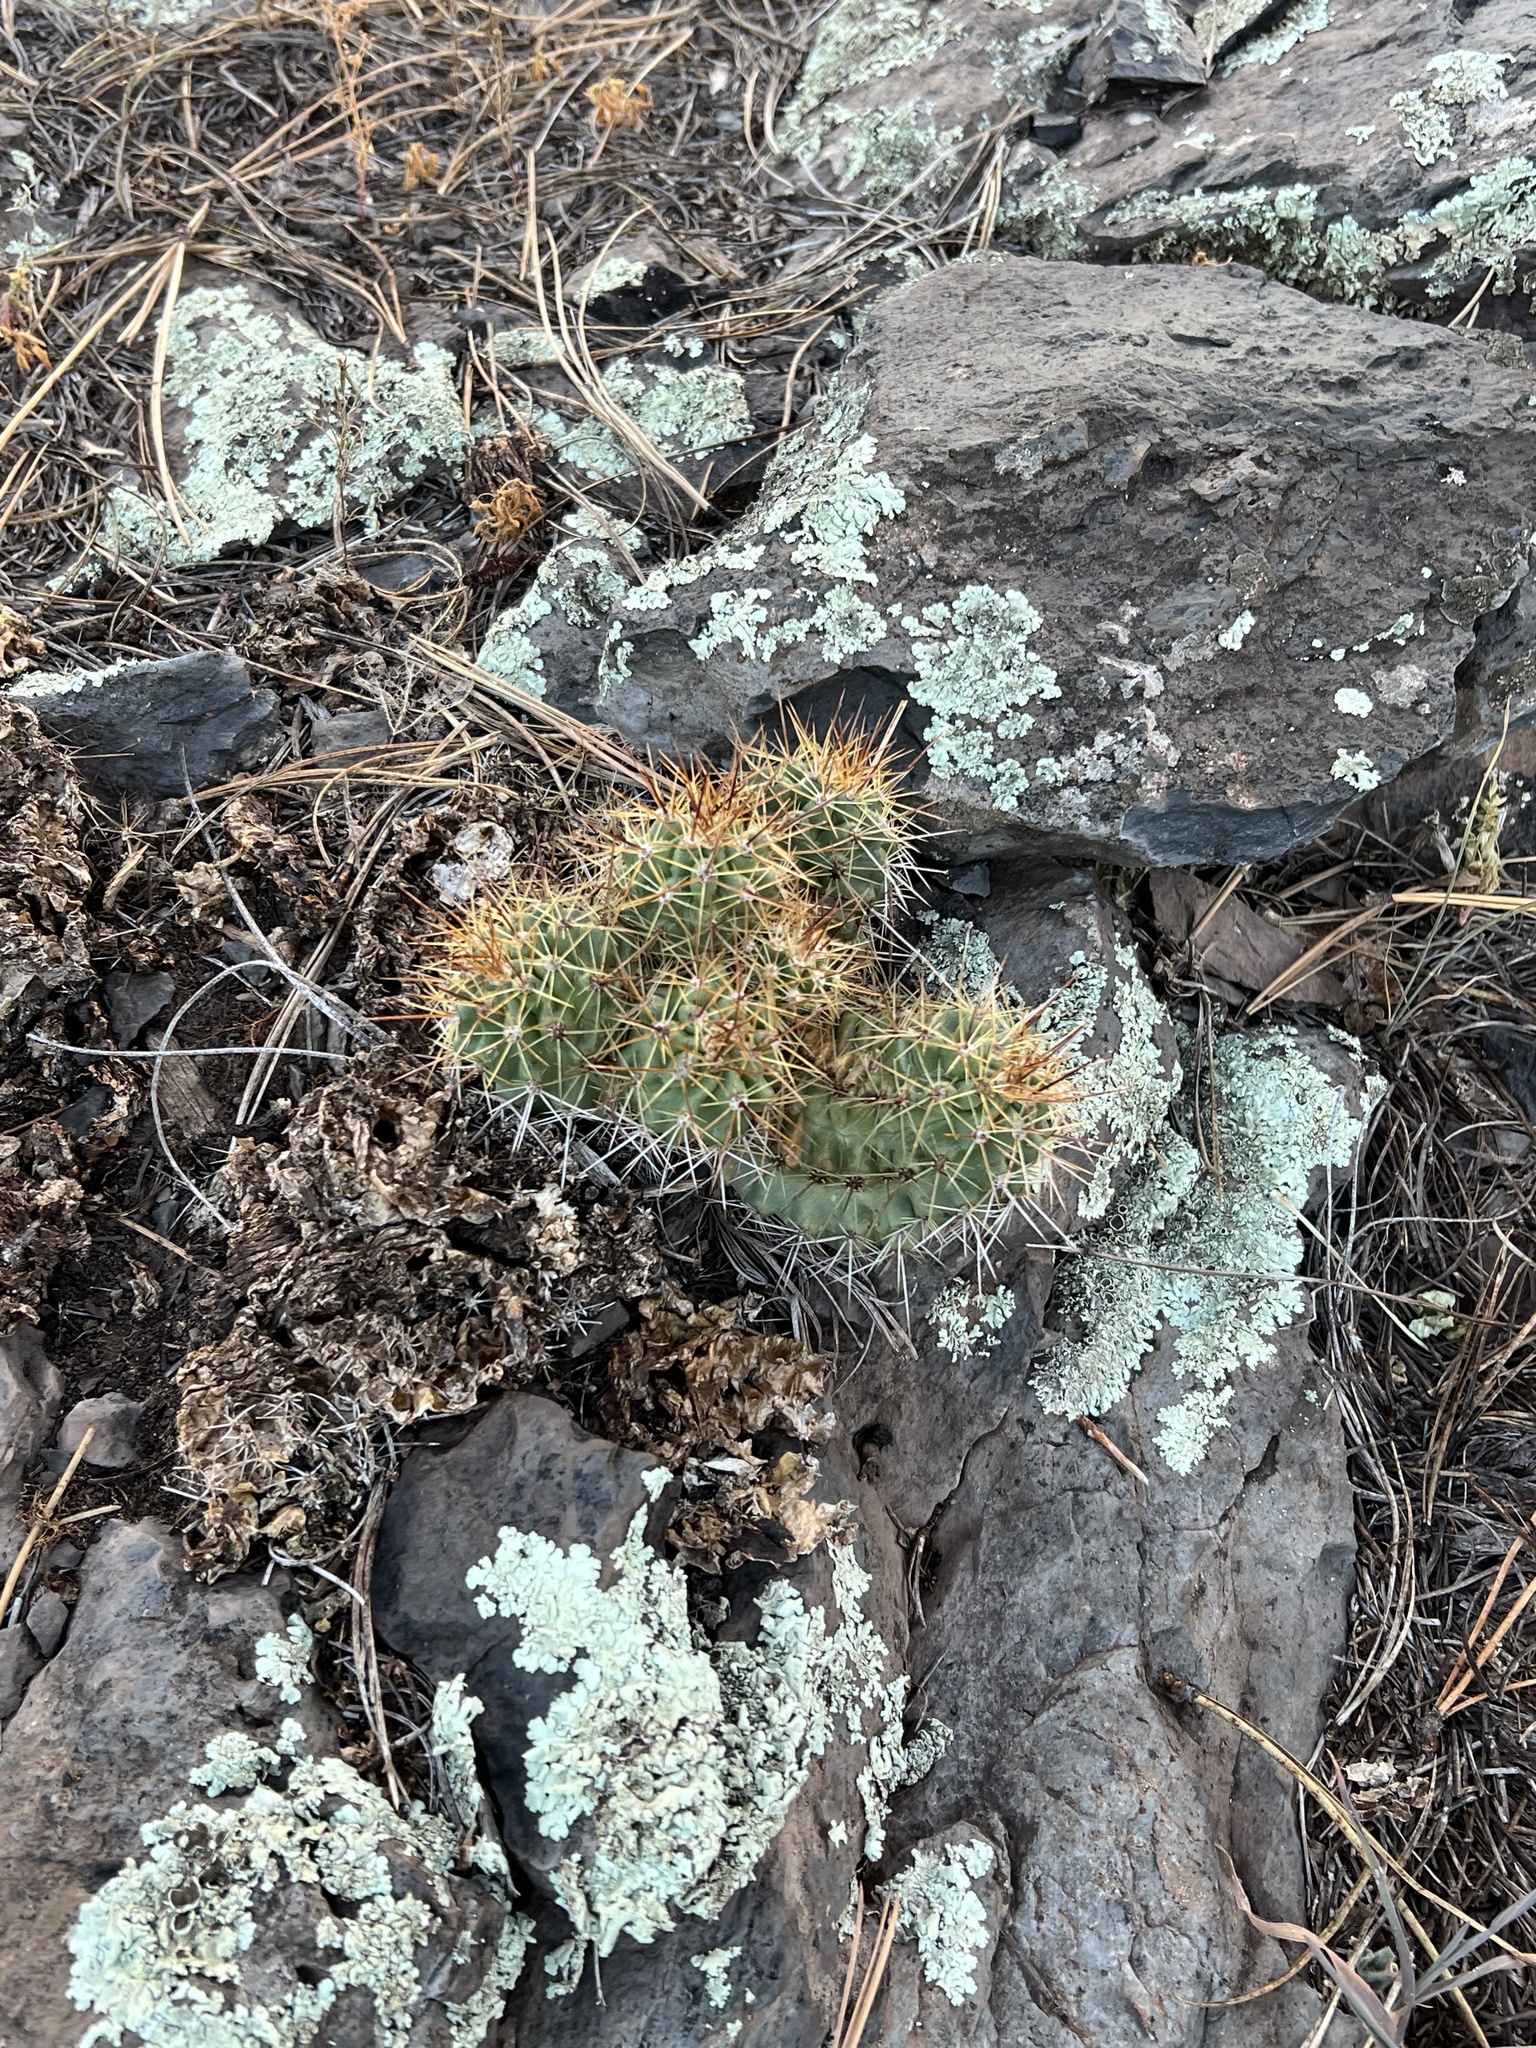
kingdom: Plantae
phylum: Tracheophyta
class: Magnoliopsida
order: Caryophyllales
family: Cactaceae
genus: Echinocereus
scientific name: Echinocereus bakeri
